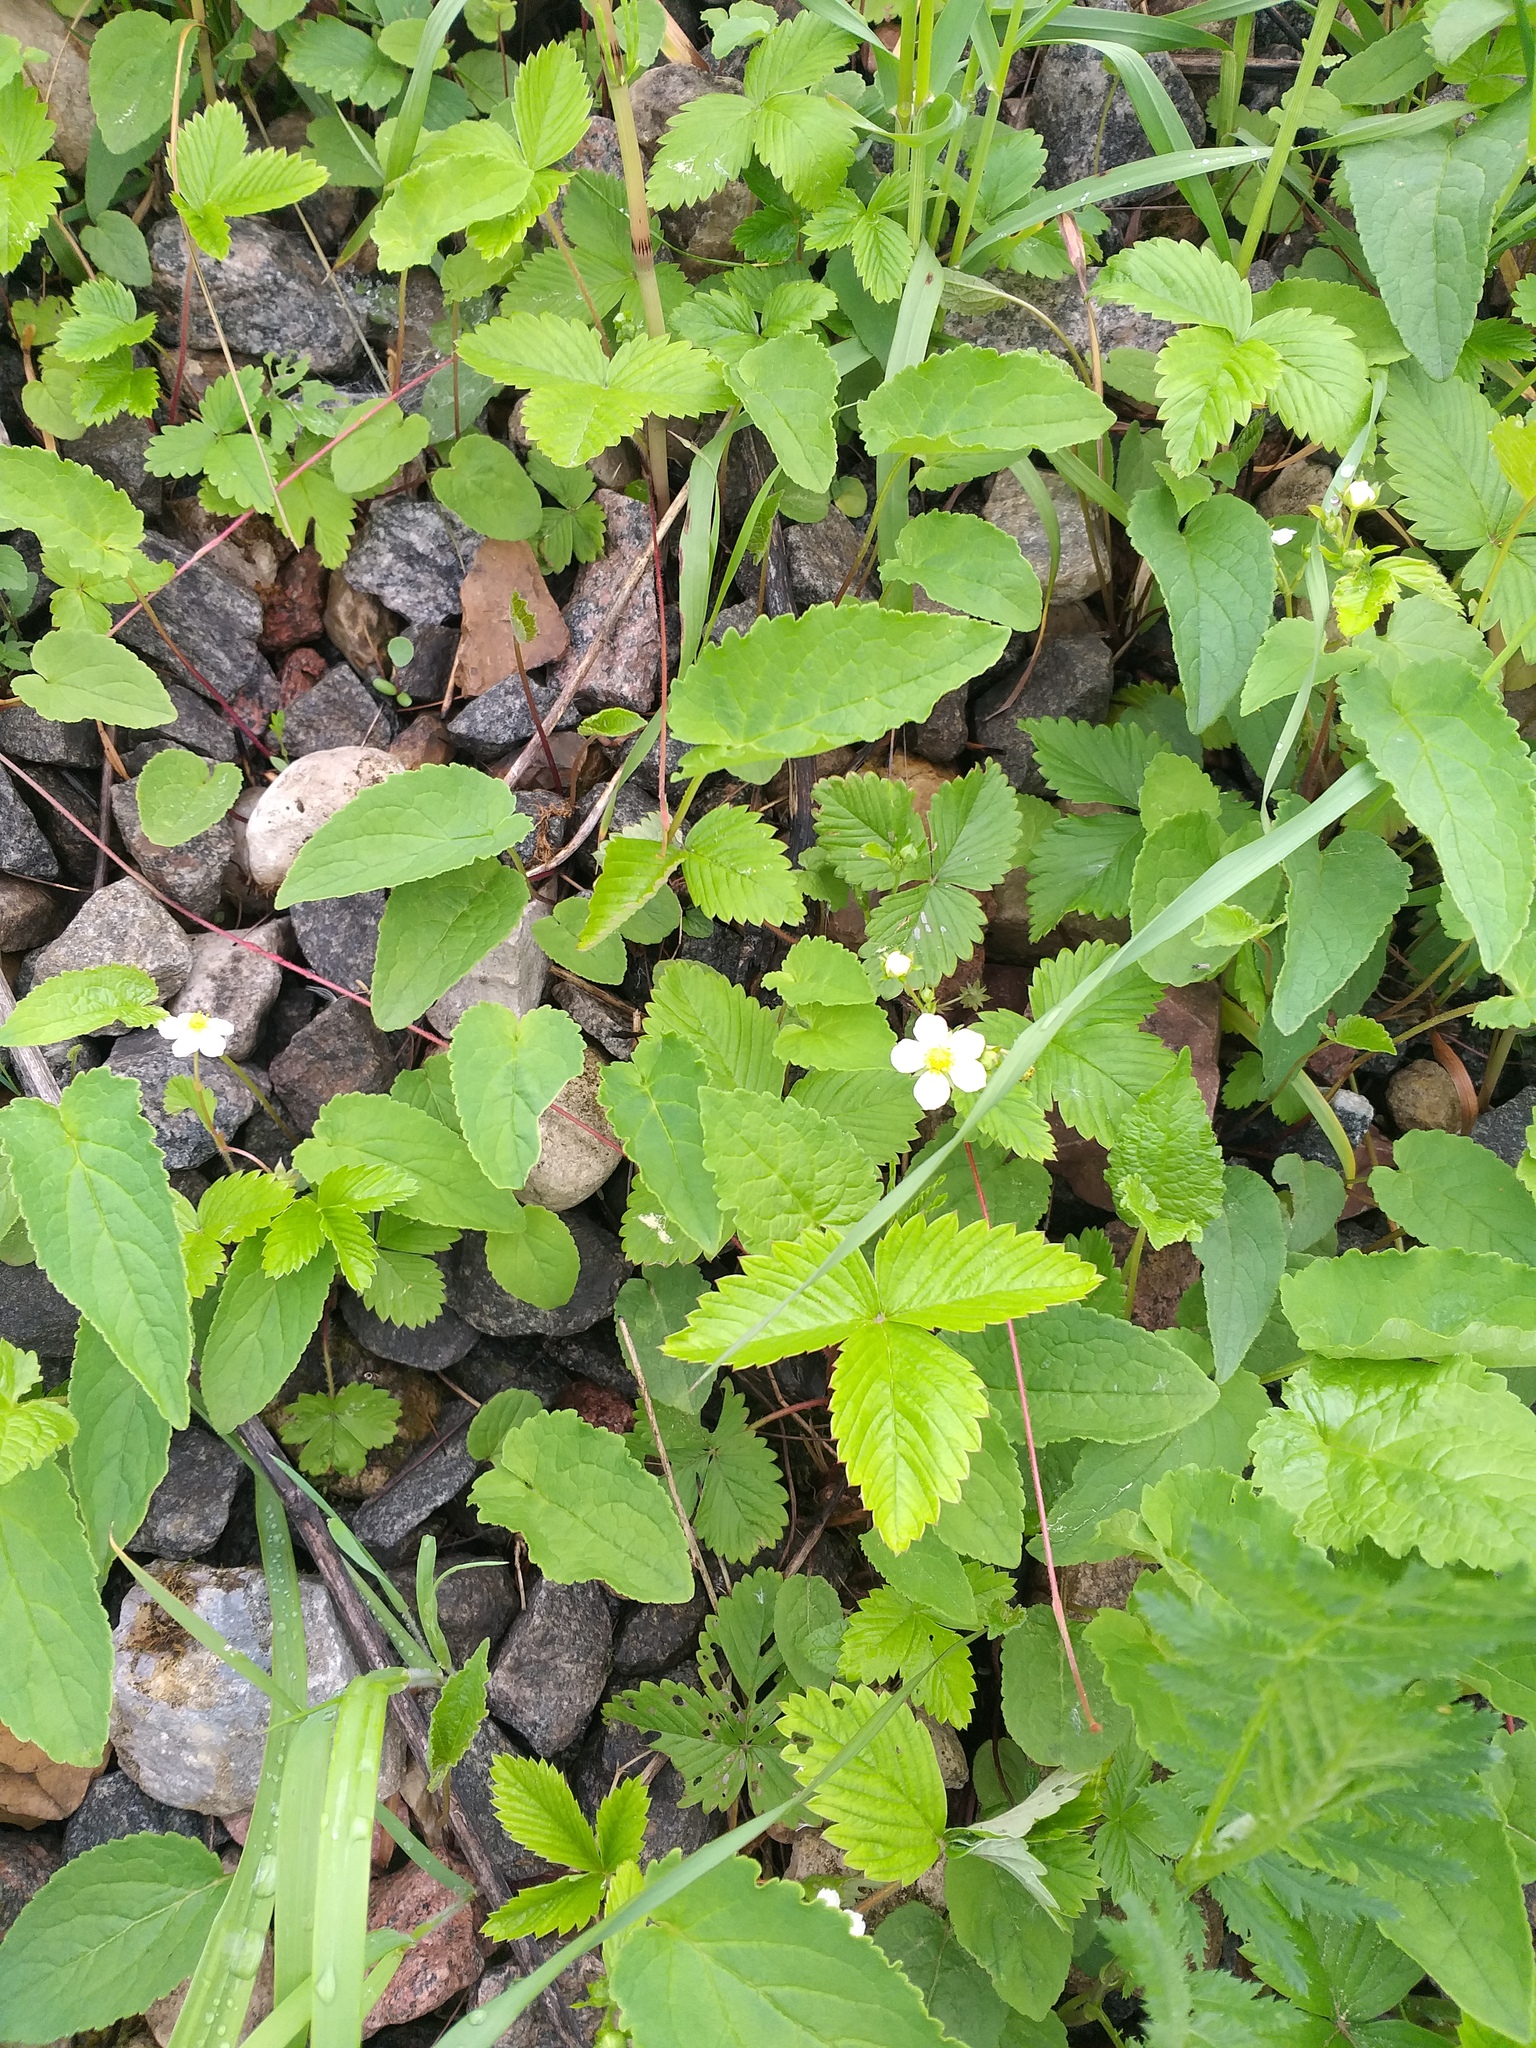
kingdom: Plantae
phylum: Tracheophyta
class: Magnoliopsida
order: Rosales
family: Rosaceae
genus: Fragaria
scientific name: Fragaria vesca
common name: Wild strawberry
